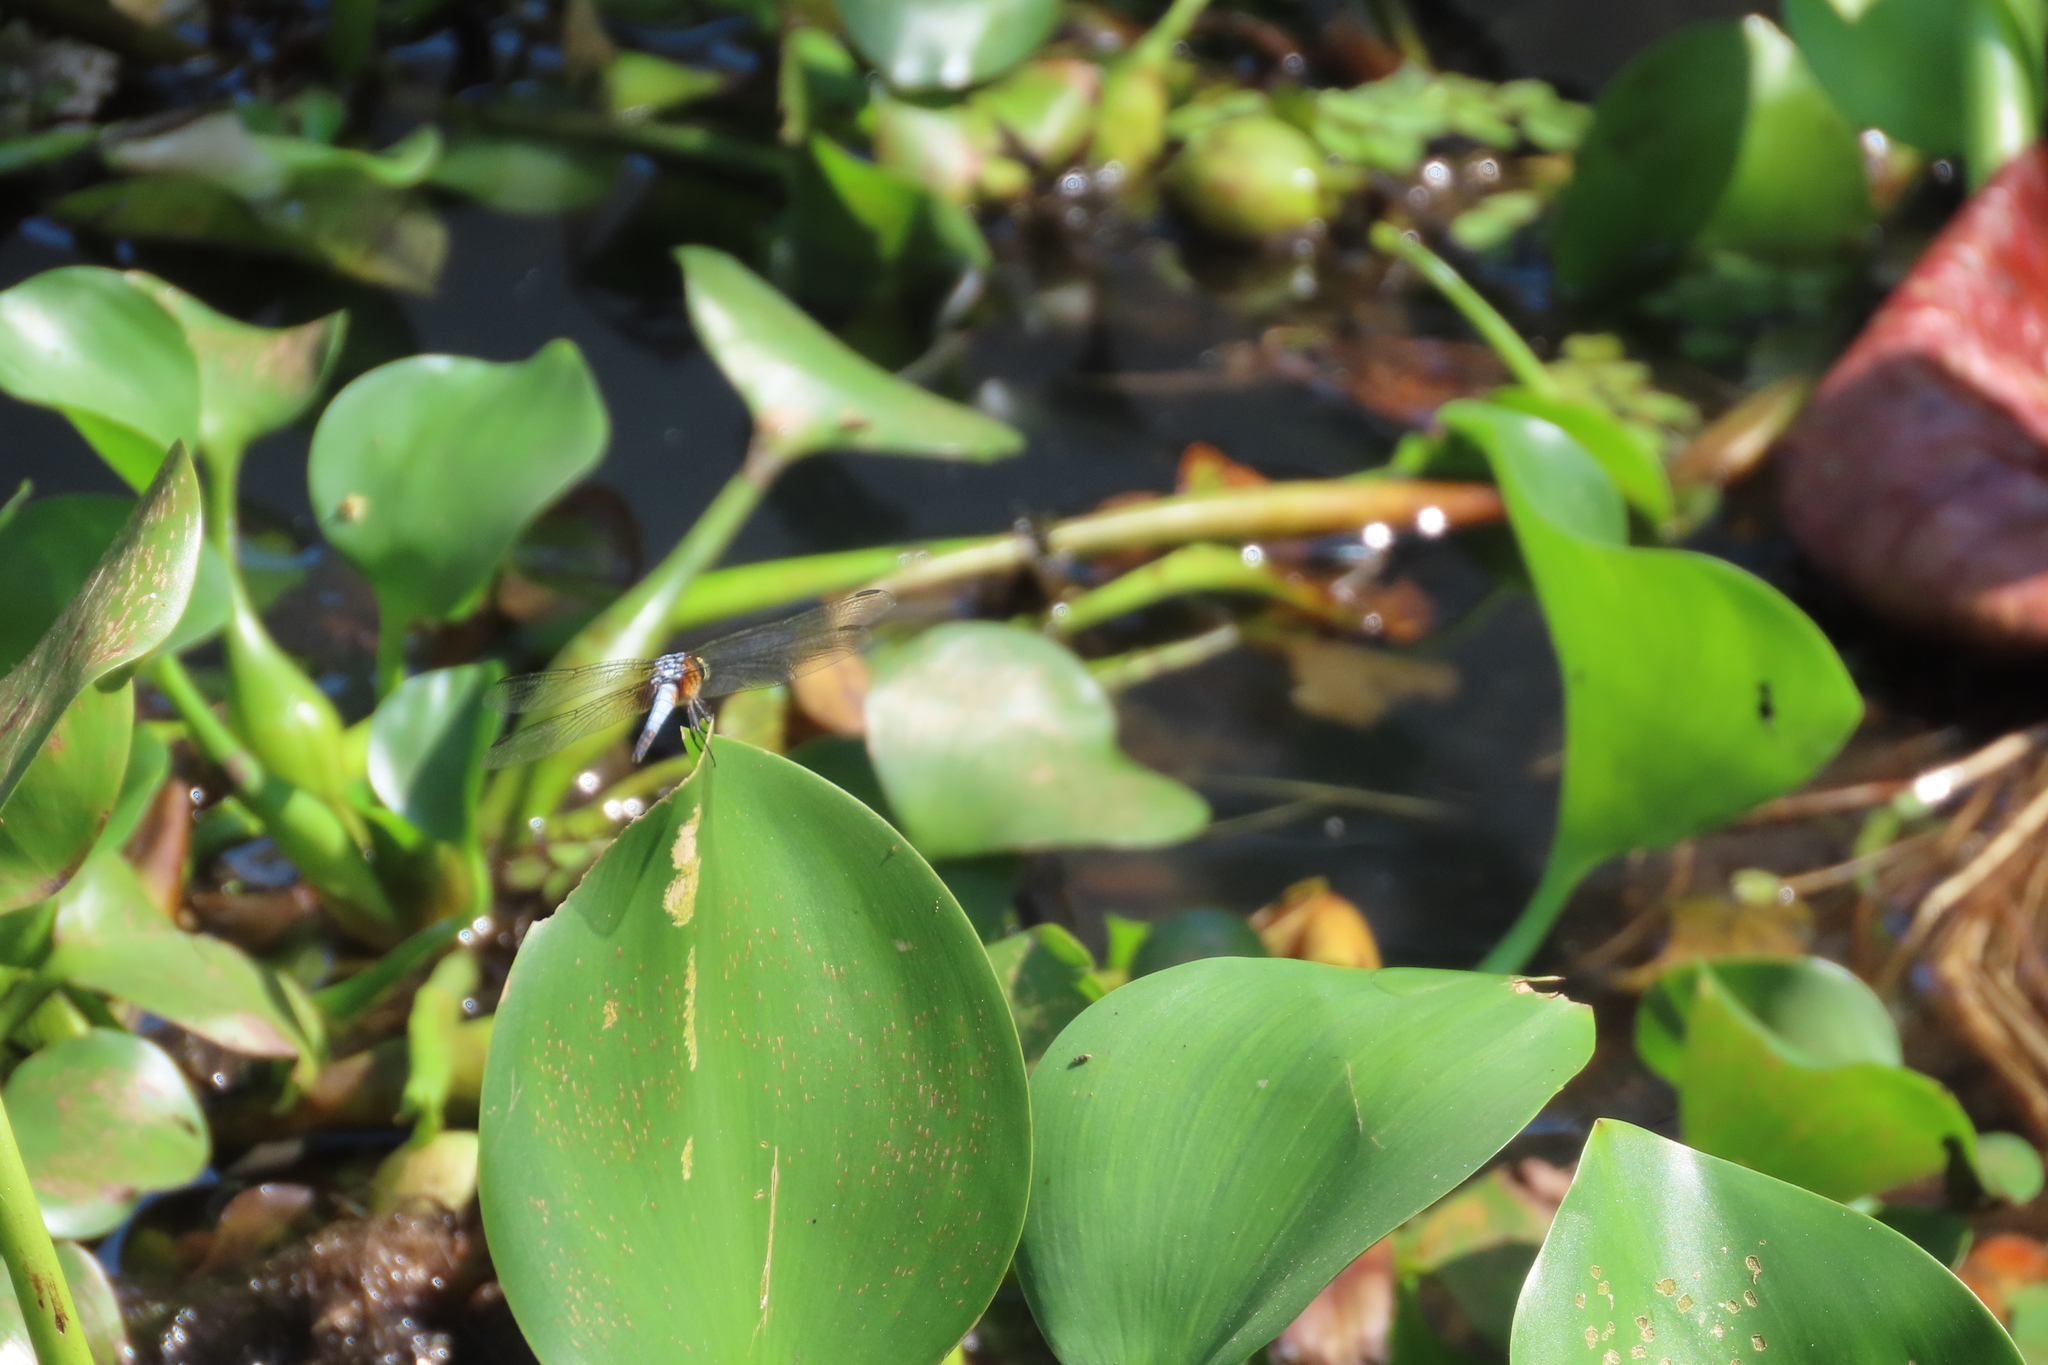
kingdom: Animalia
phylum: Arthropoda
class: Insecta
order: Odonata
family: Libellulidae
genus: Brachydiplax
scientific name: Brachydiplax chalybea
